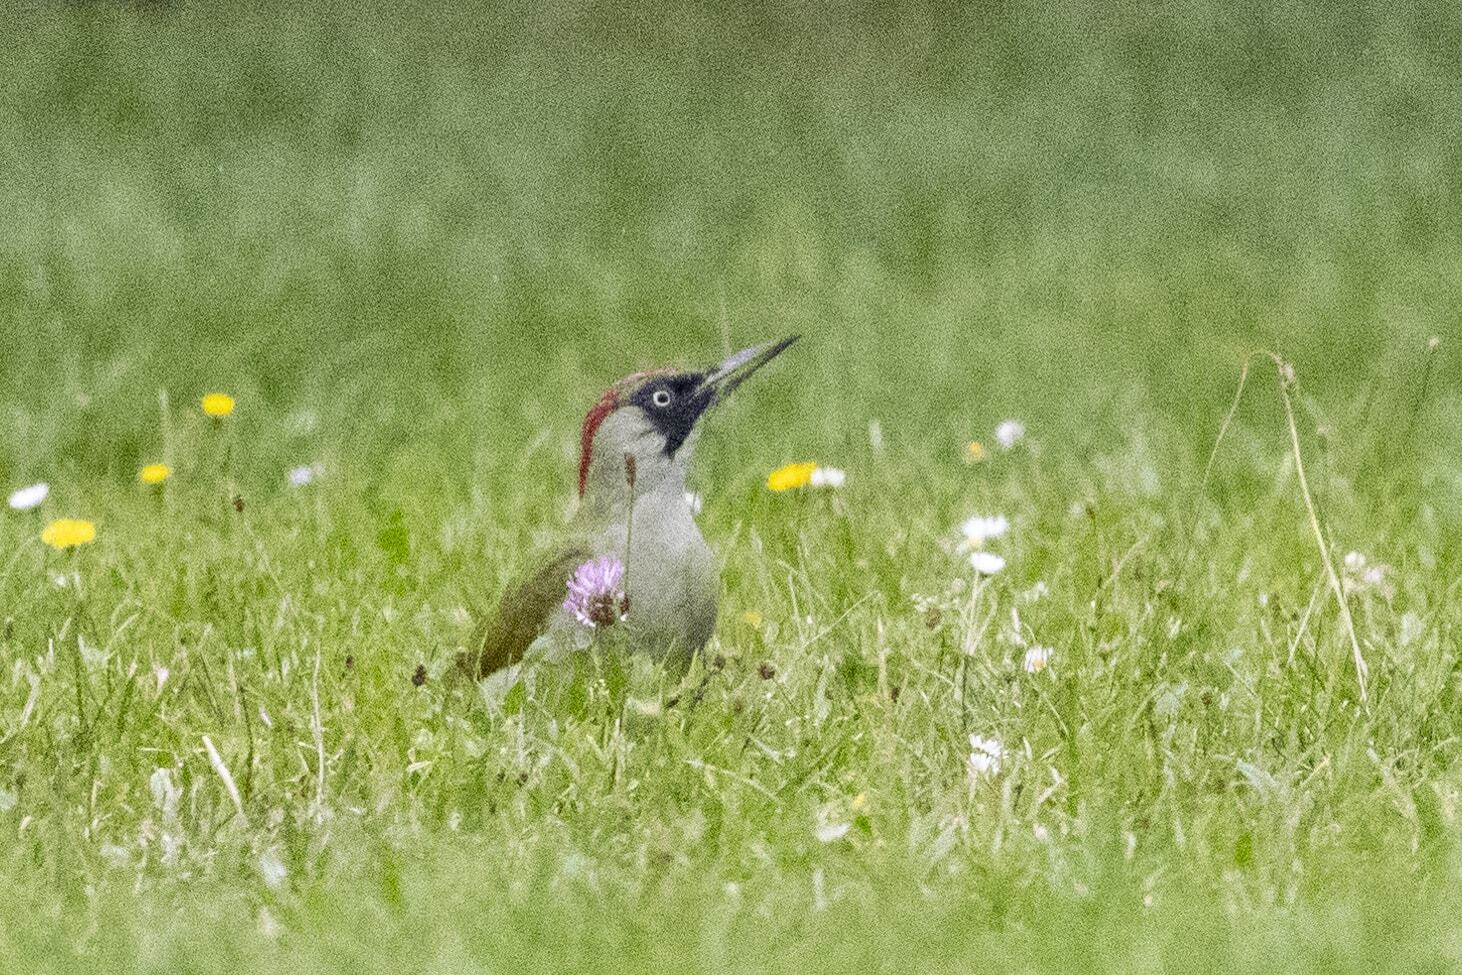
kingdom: Animalia
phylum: Chordata
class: Aves
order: Piciformes
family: Picidae
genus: Picus
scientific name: Picus viridis
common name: European green woodpecker
